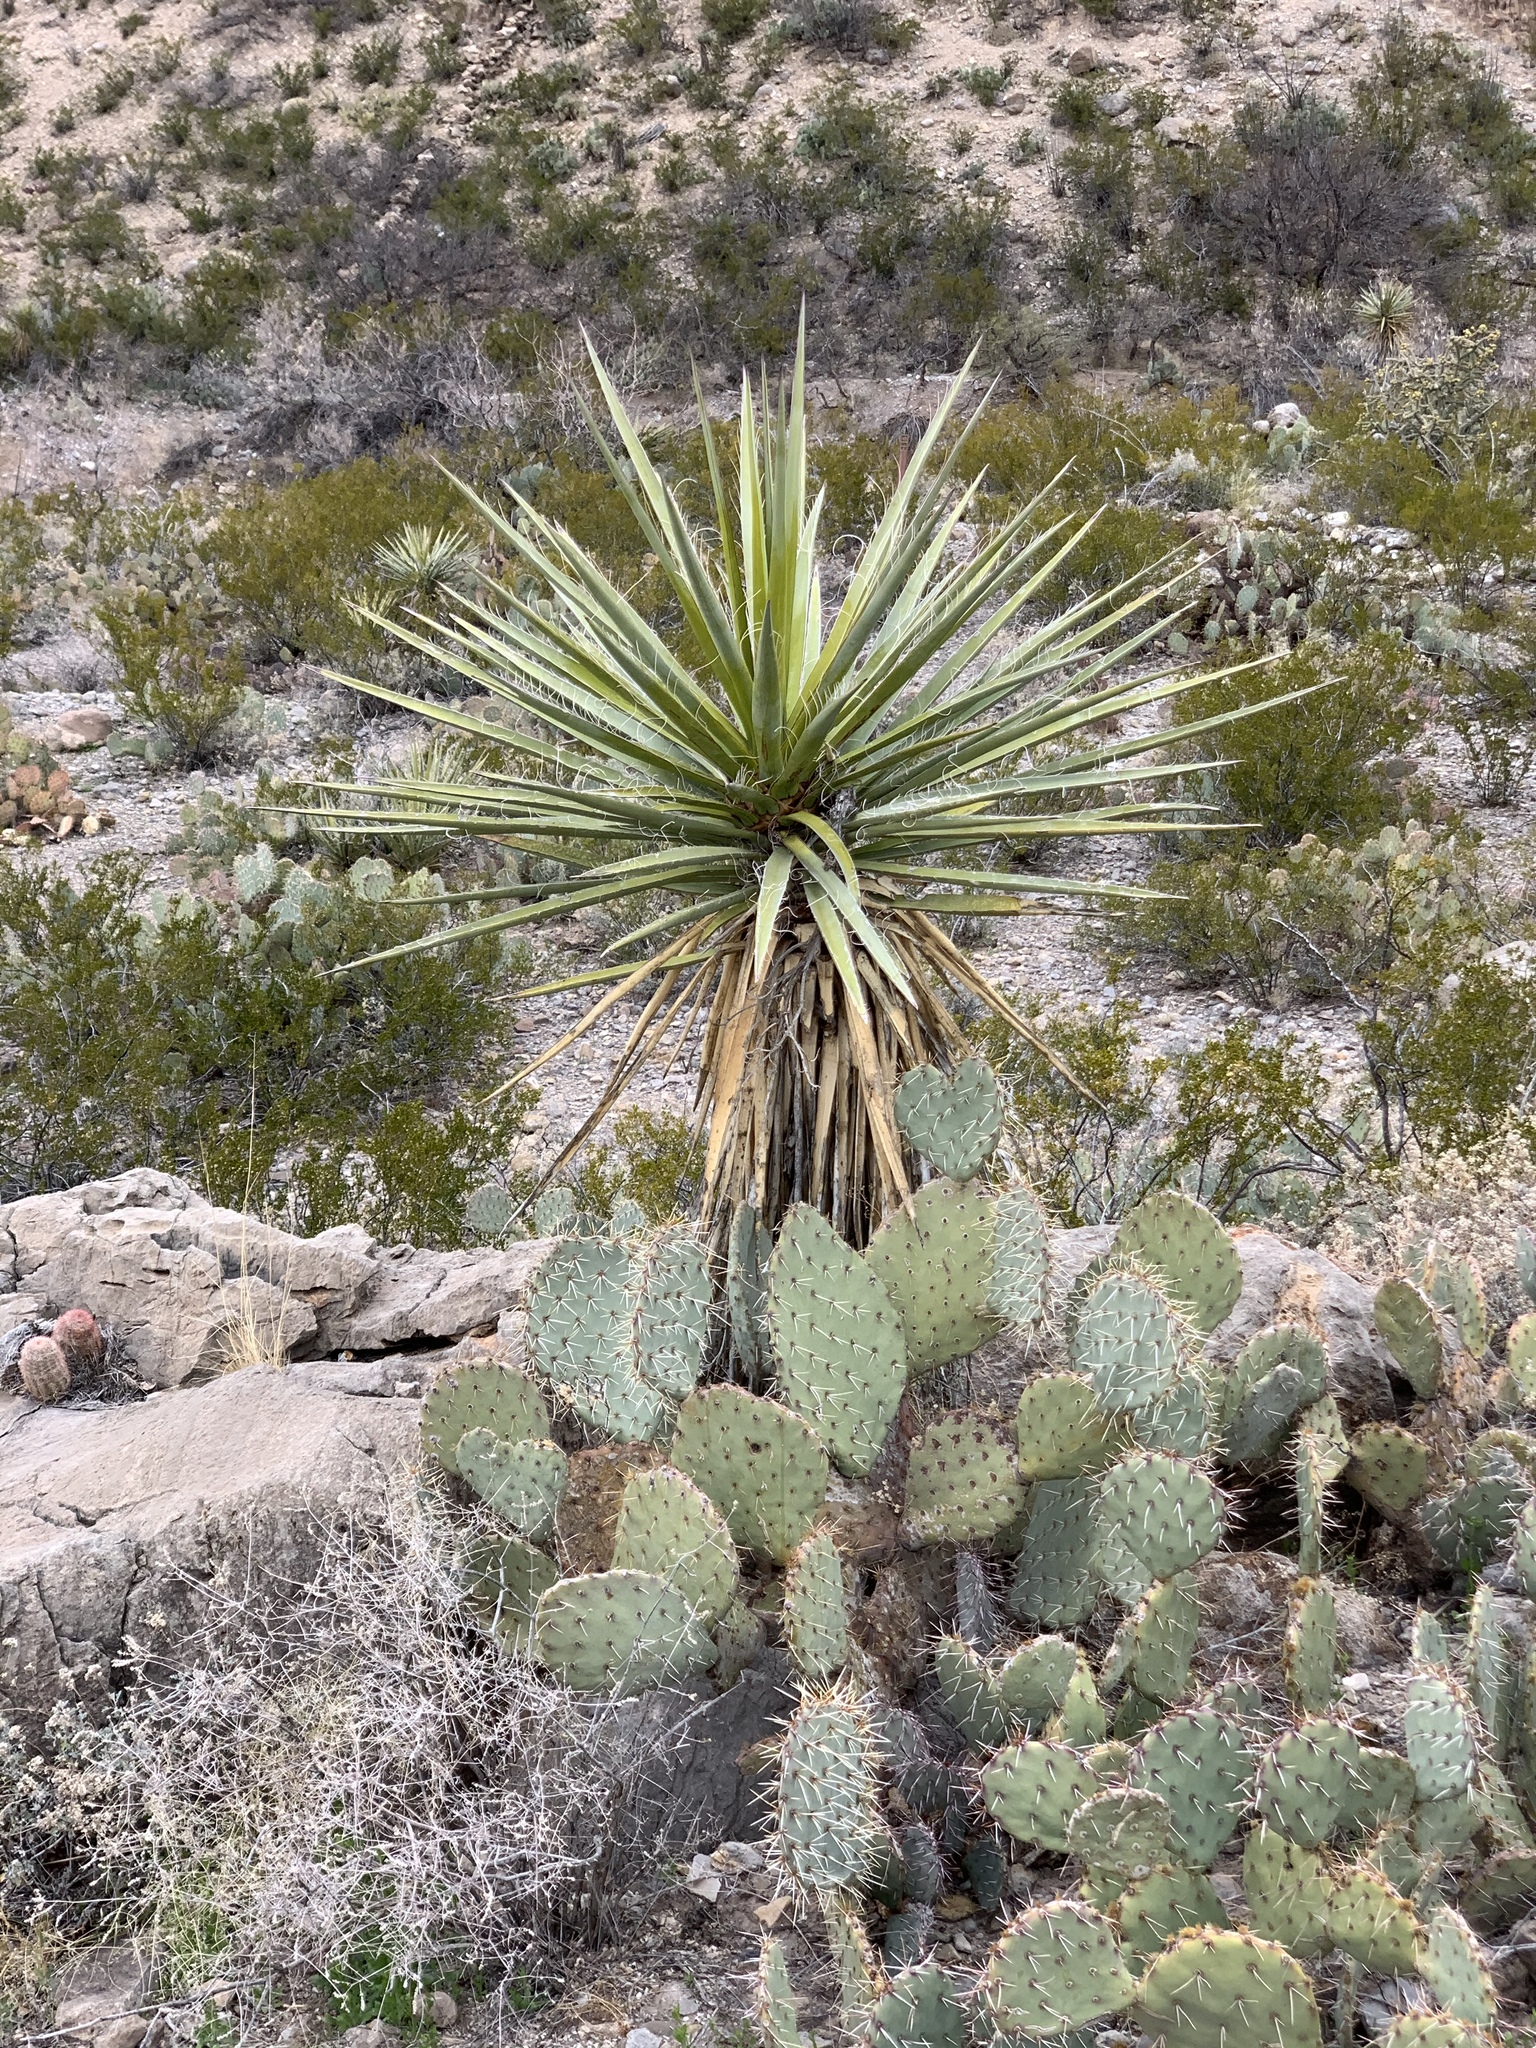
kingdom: Plantae
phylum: Tracheophyta
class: Liliopsida
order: Asparagales
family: Asparagaceae
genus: Yucca
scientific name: Yucca treculiana
